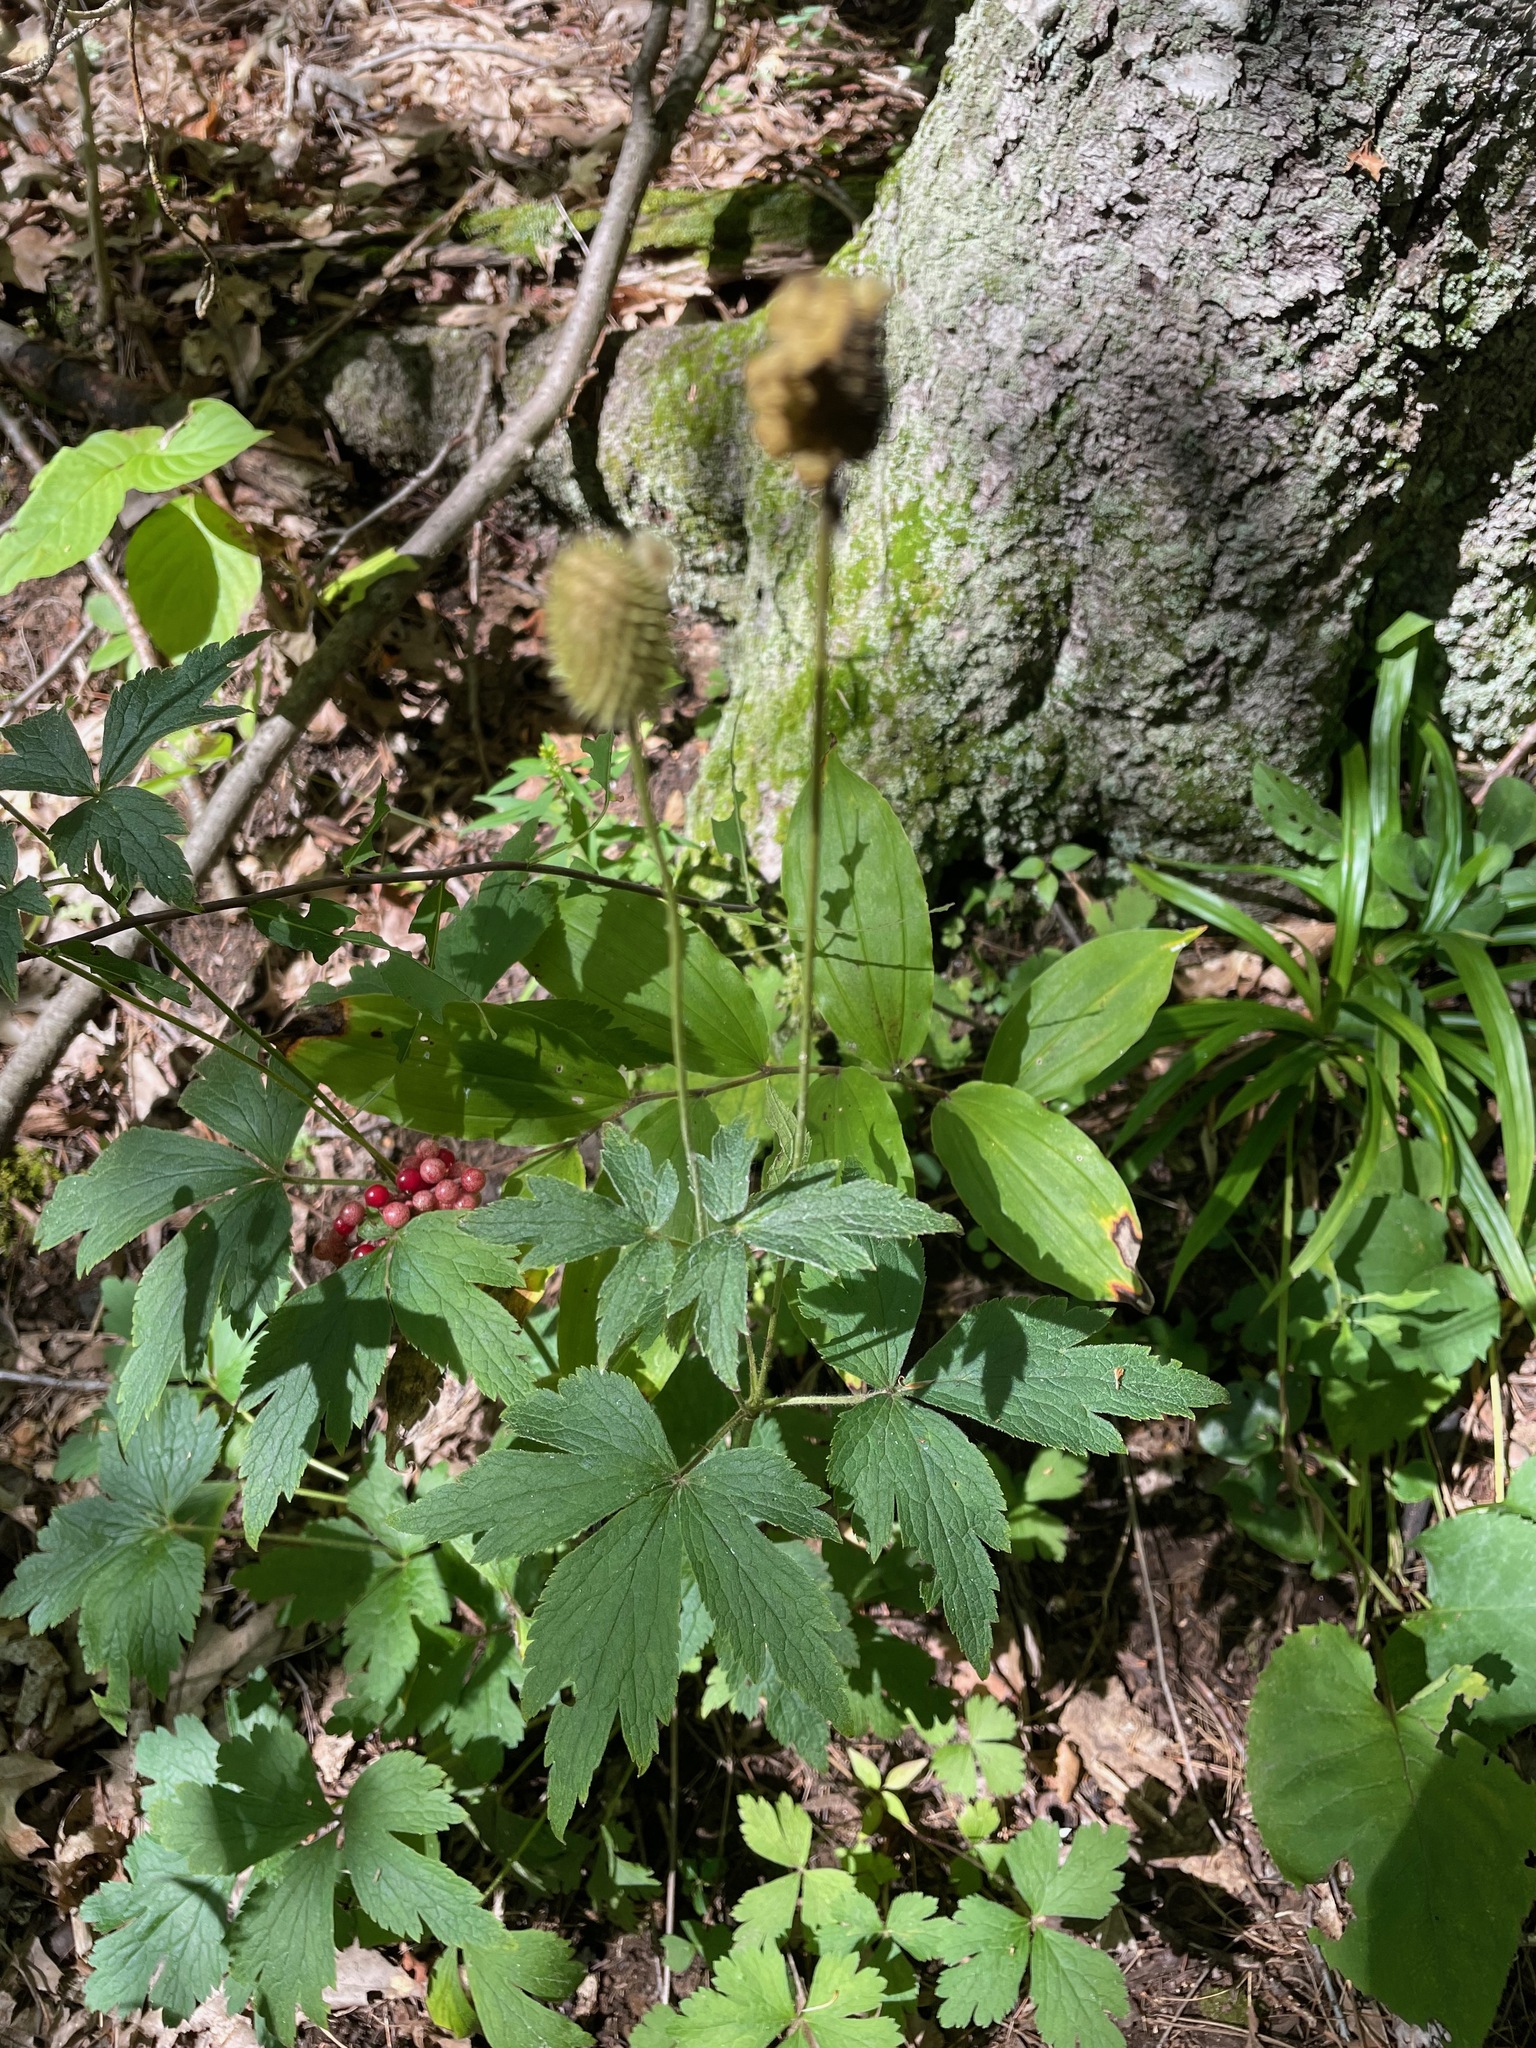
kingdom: Plantae
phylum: Tracheophyta
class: Magnoliopsida
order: Ranunculales
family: Ranunculaceae
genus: Anemone
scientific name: Anemone virginiana
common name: Tall anemone
